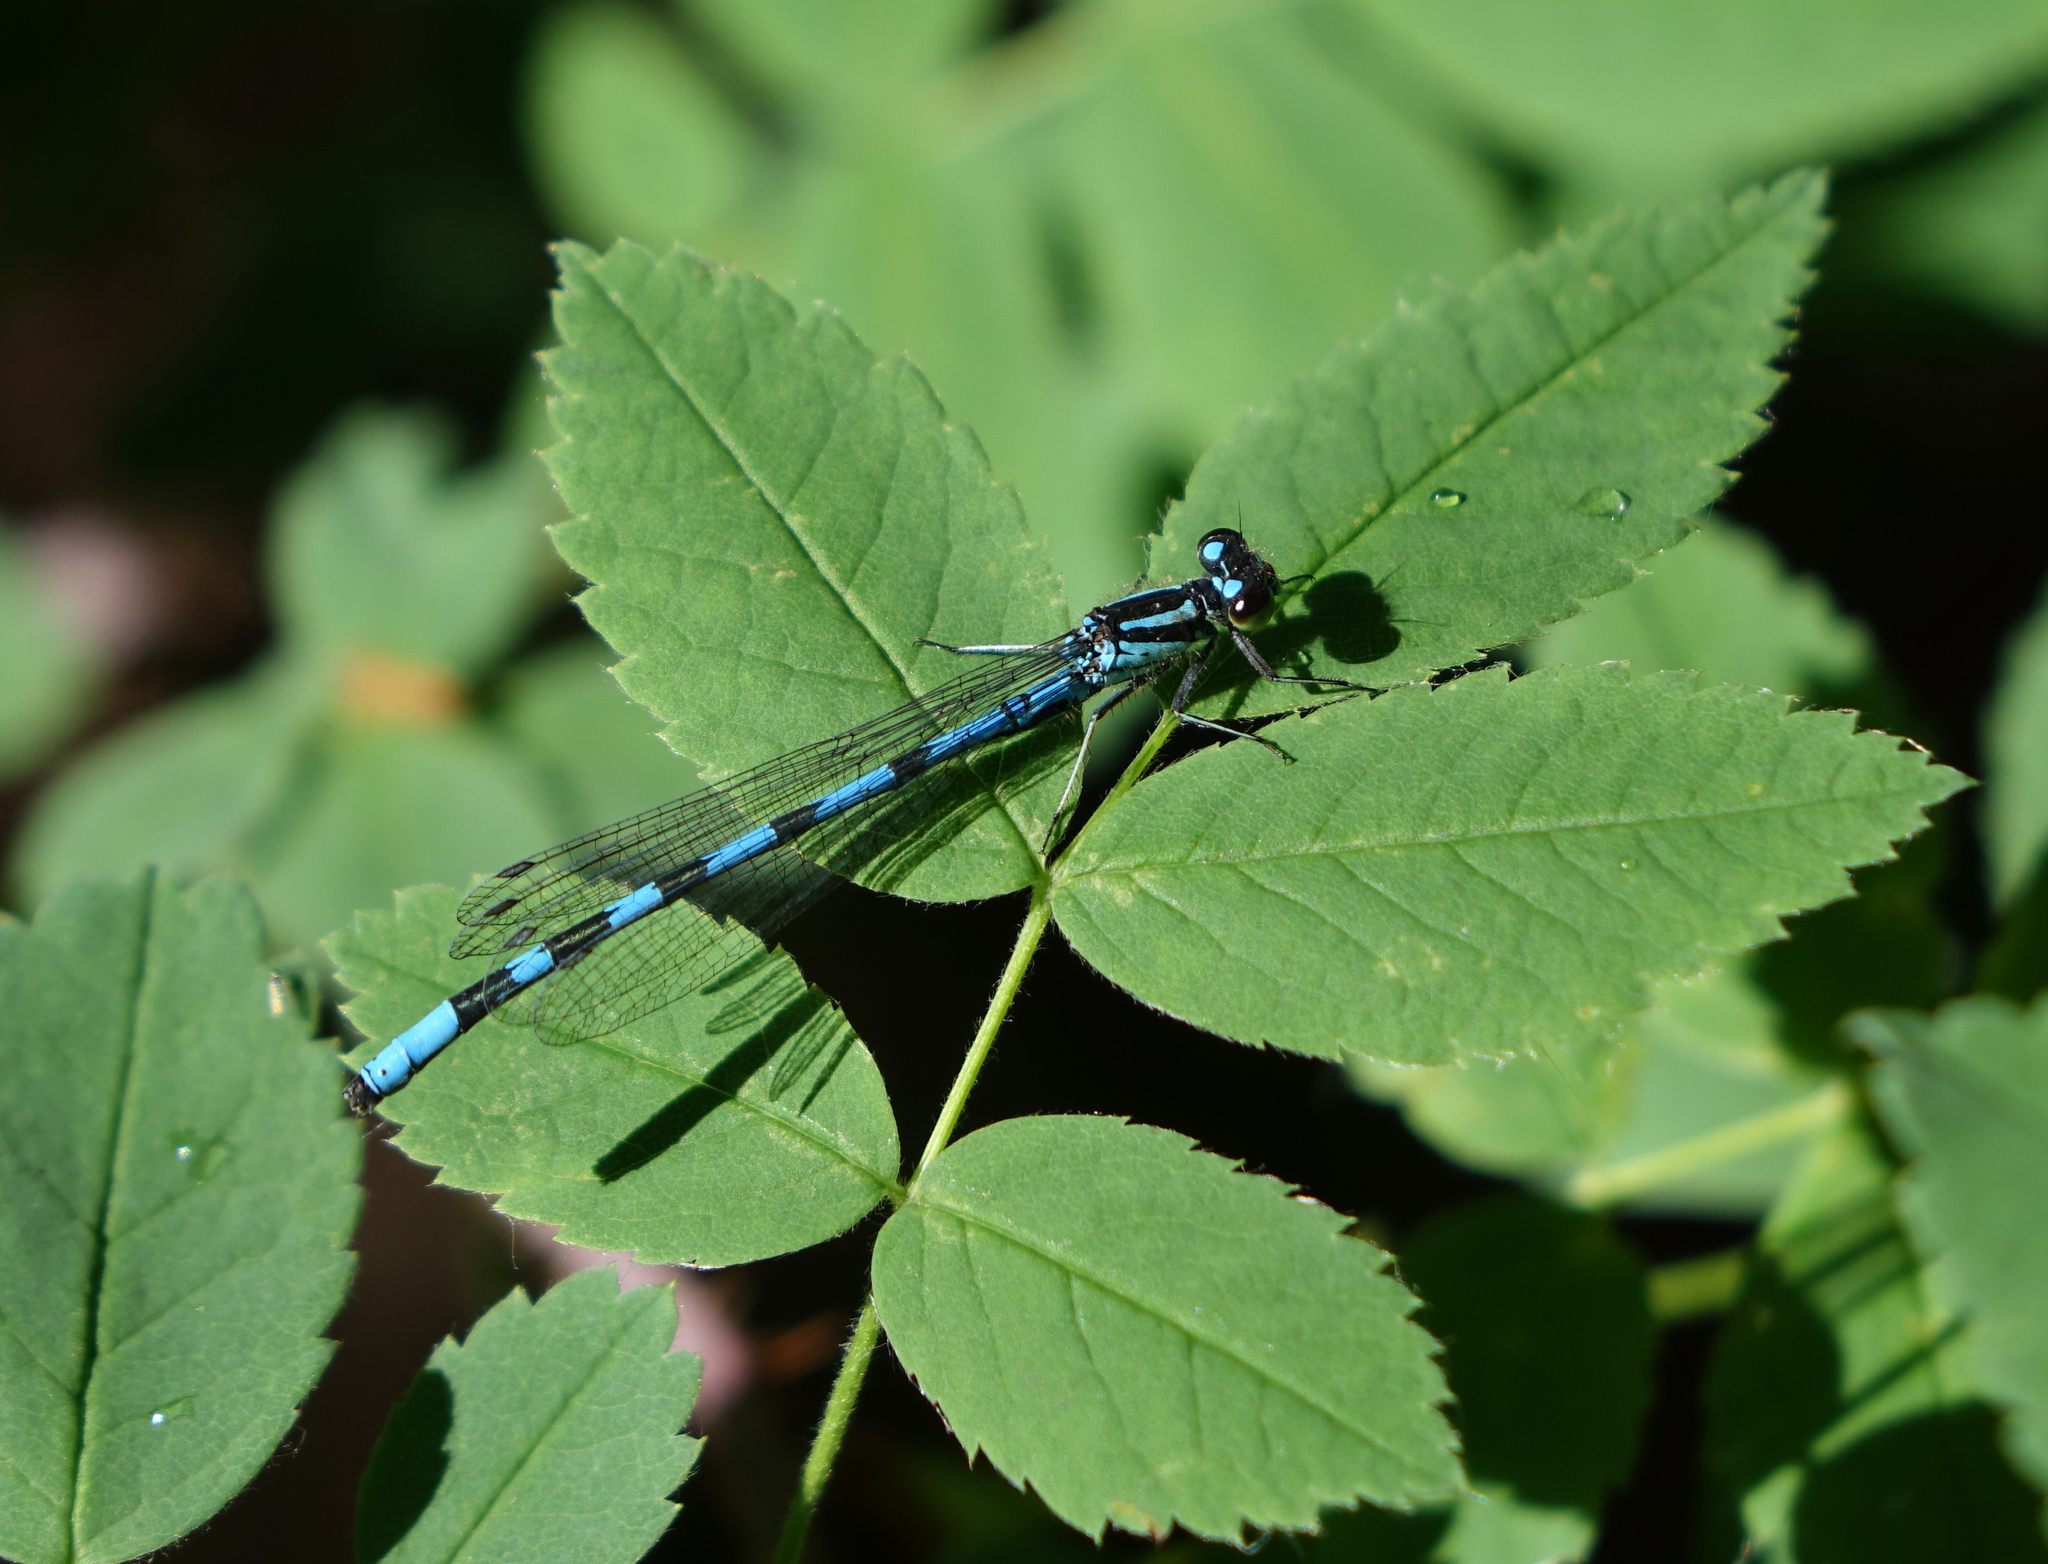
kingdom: Animalia
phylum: Arthropoda
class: Insecta
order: Odonata
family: Coenagrionidae
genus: Coenagrion
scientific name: Coenagrion hylas
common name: Frey's damselfly
